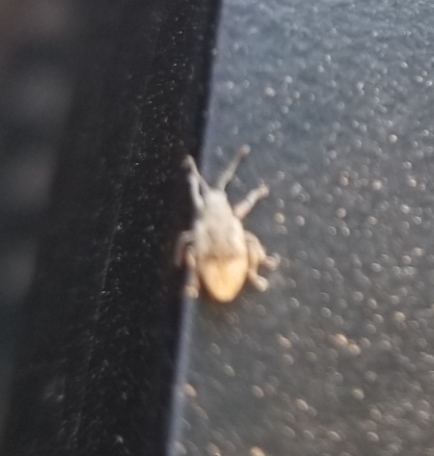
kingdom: Animalia
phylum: Arthropoda
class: Insecta
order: Coleoptera
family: Curculionidae
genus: Pseudoedophrys
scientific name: Pseudoedophrys hilleri
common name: Weevil
